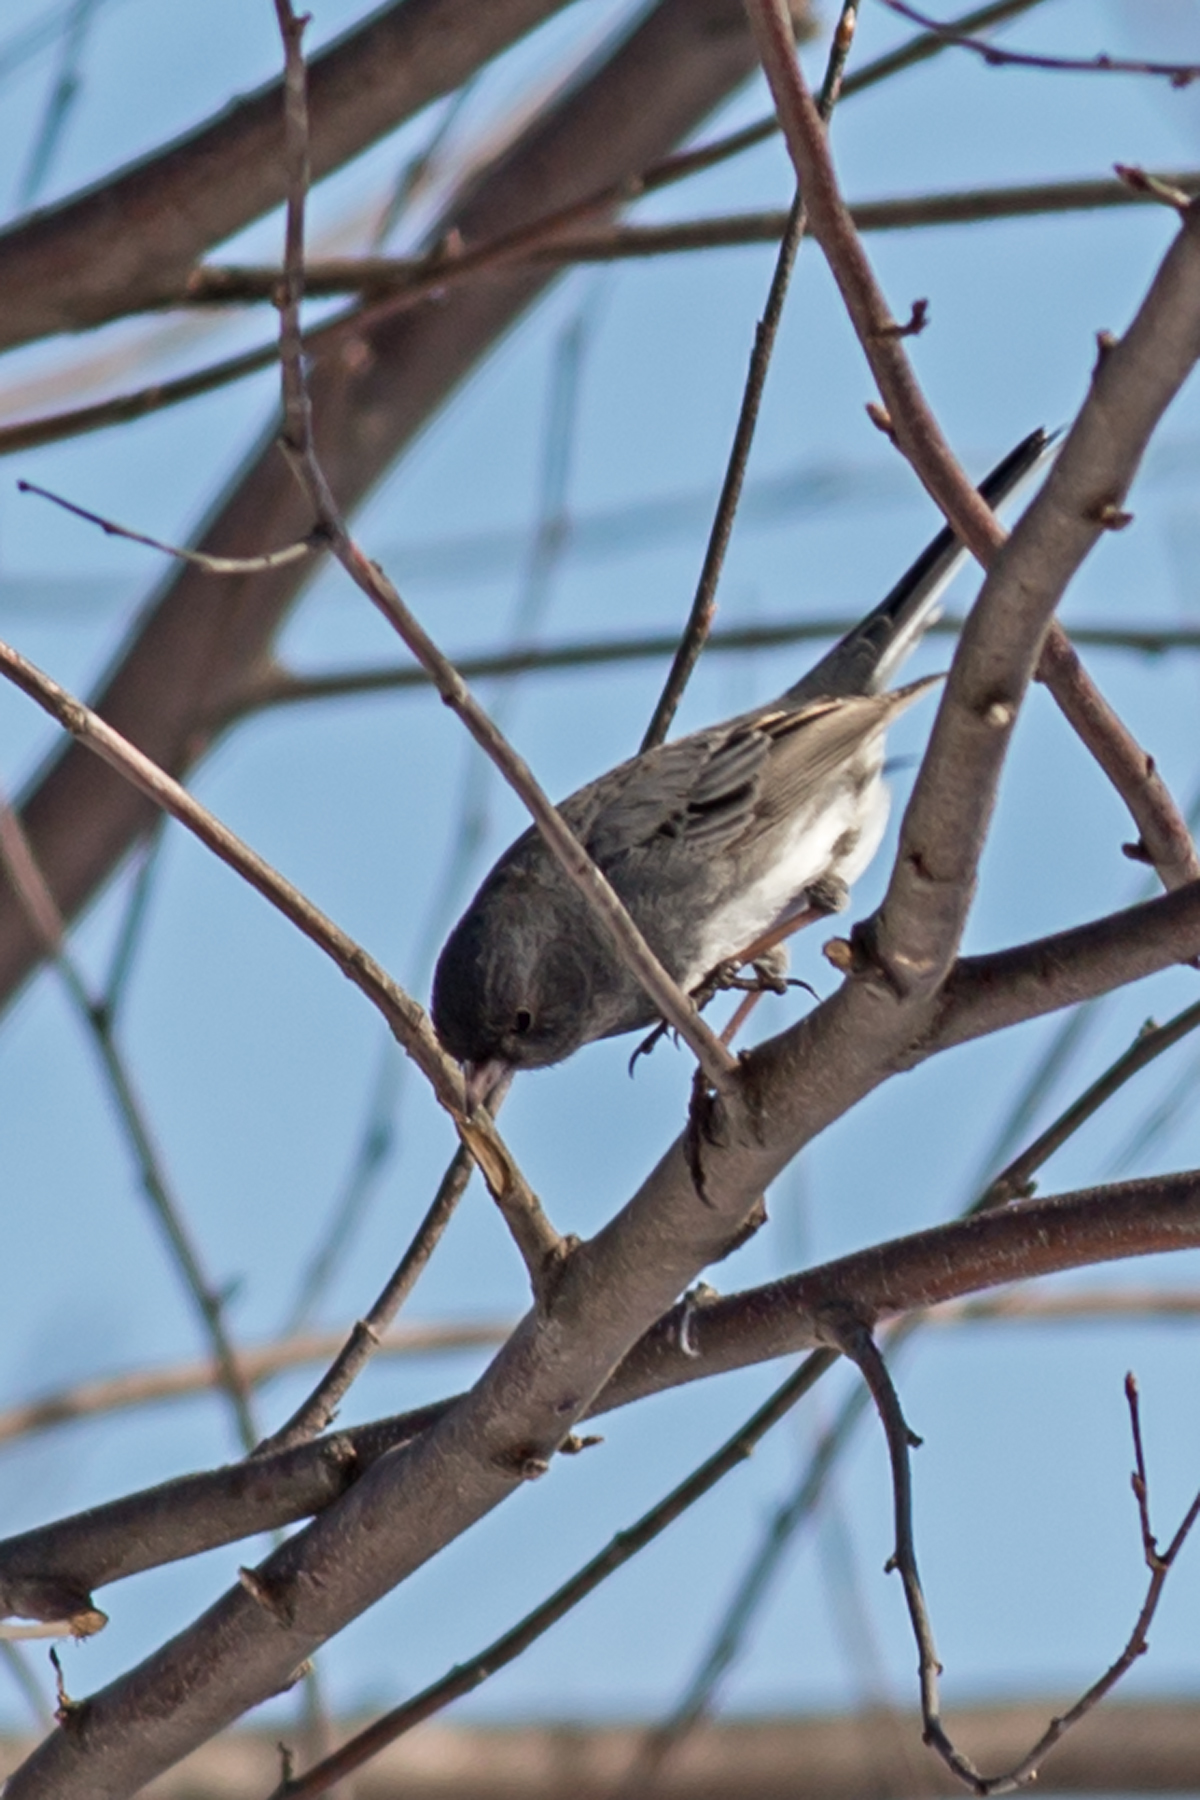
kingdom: Animalia
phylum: Chordata
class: Aves
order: Passeriformes
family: Passerellidae
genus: Junco
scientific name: Junco hyemalis
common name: Dark-eyed junco
